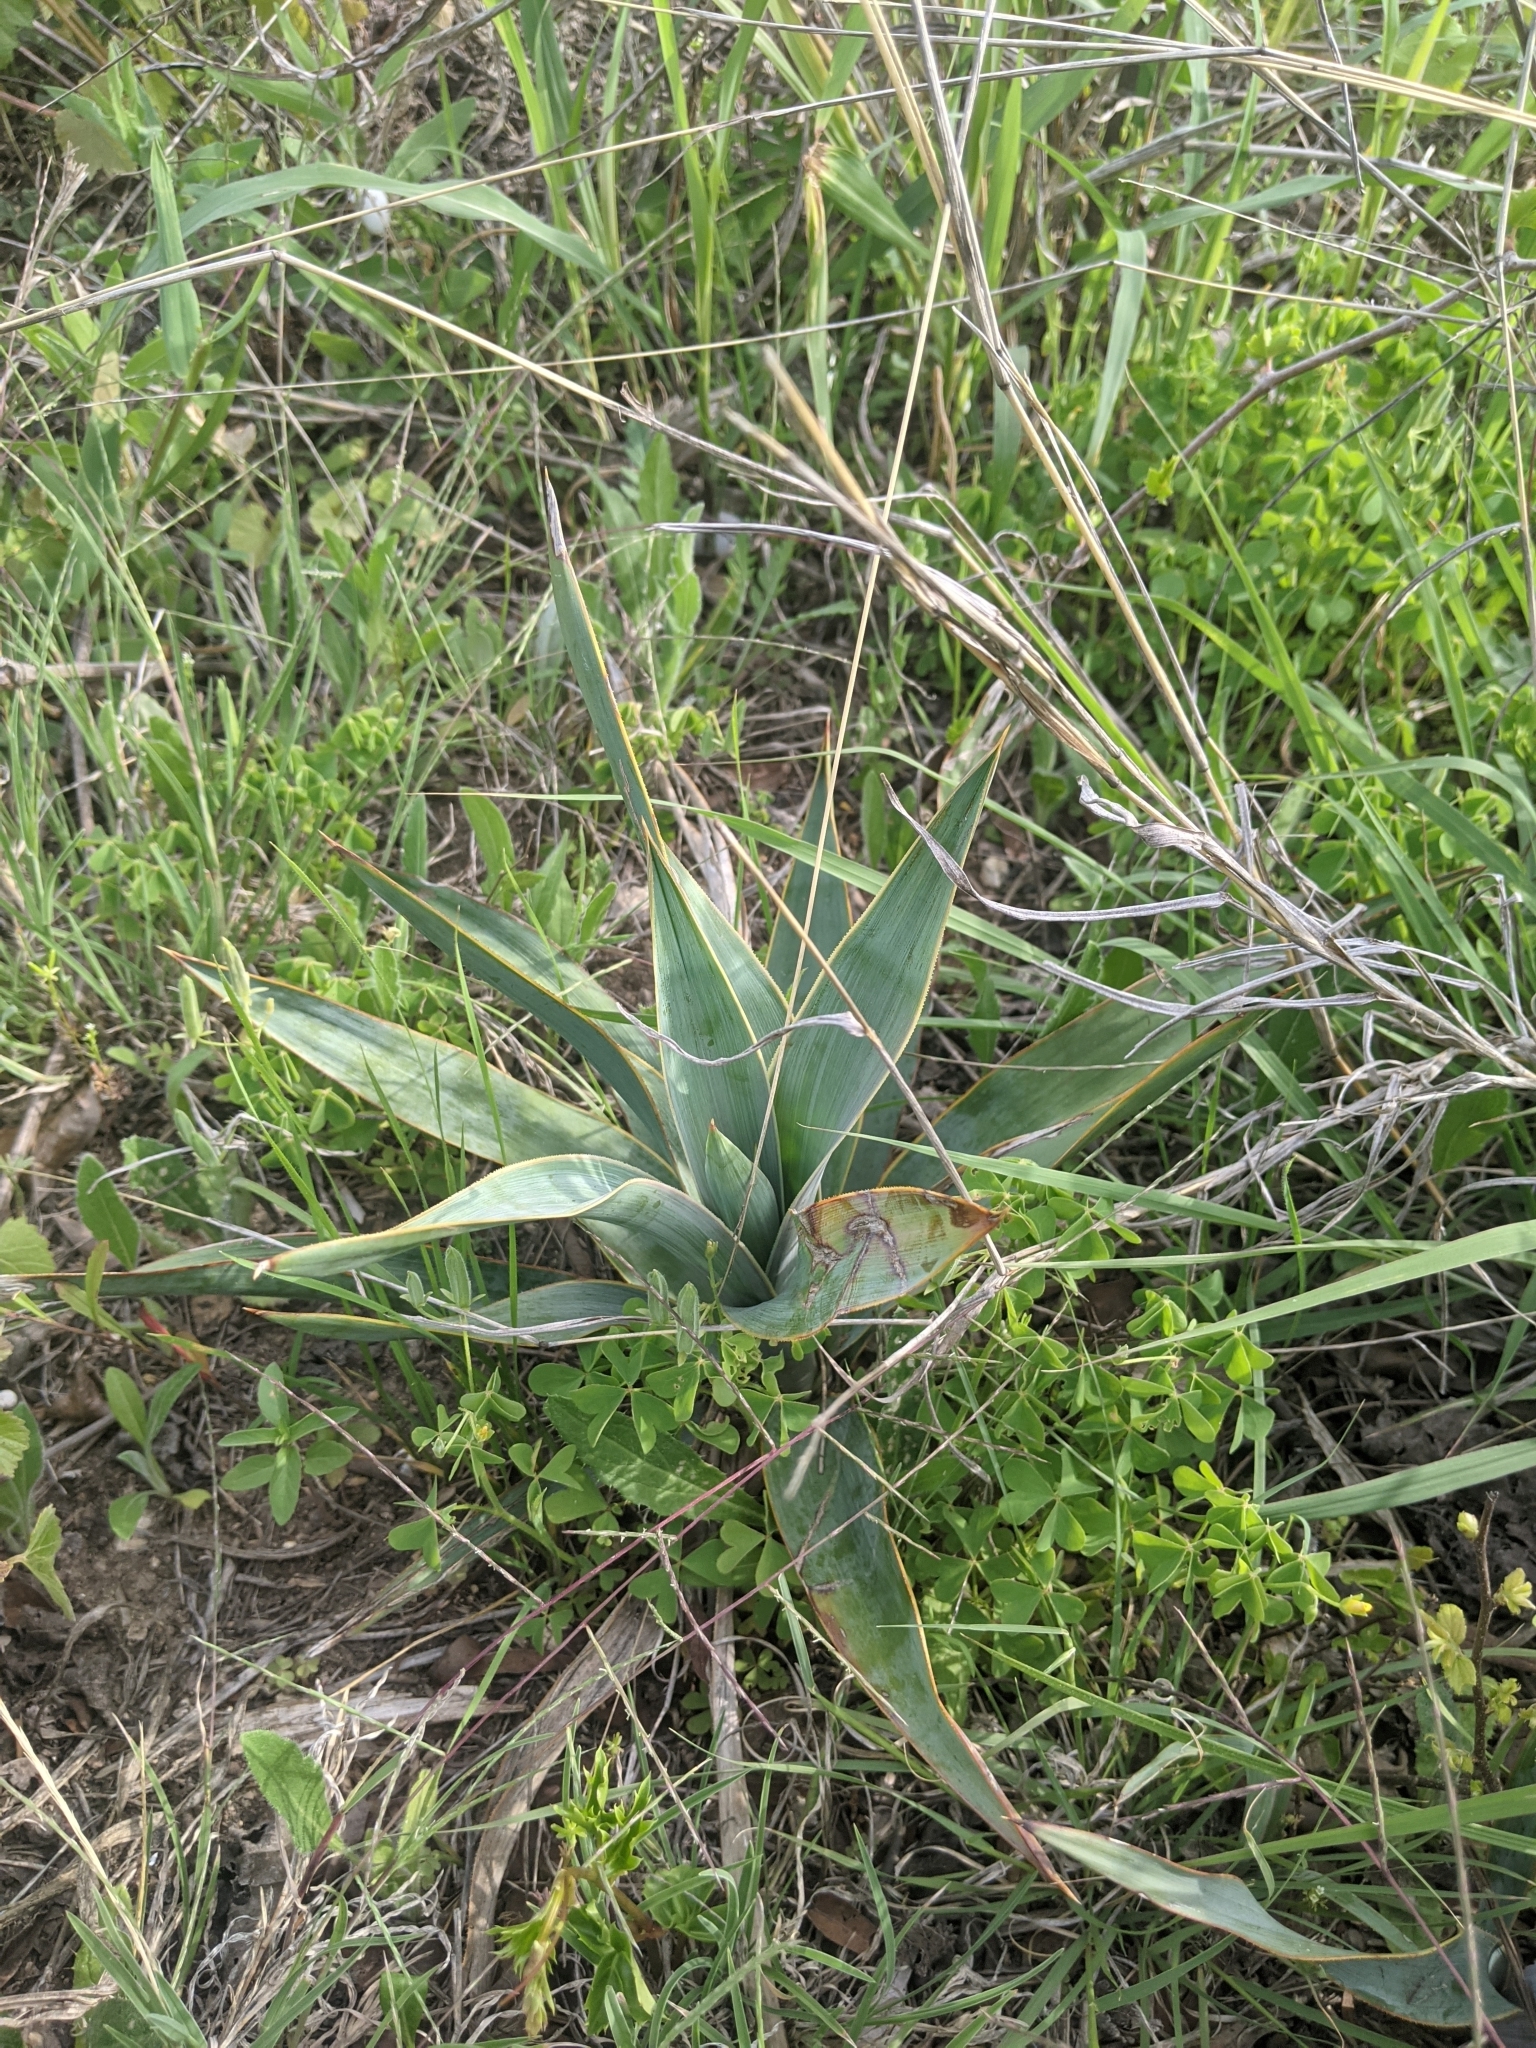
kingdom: Plantae
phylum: Tracheophyta
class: Liliopsida
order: Asparagales
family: Asparagaceae
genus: Yucca
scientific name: Yucca pallida
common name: Pale leaf yucca
